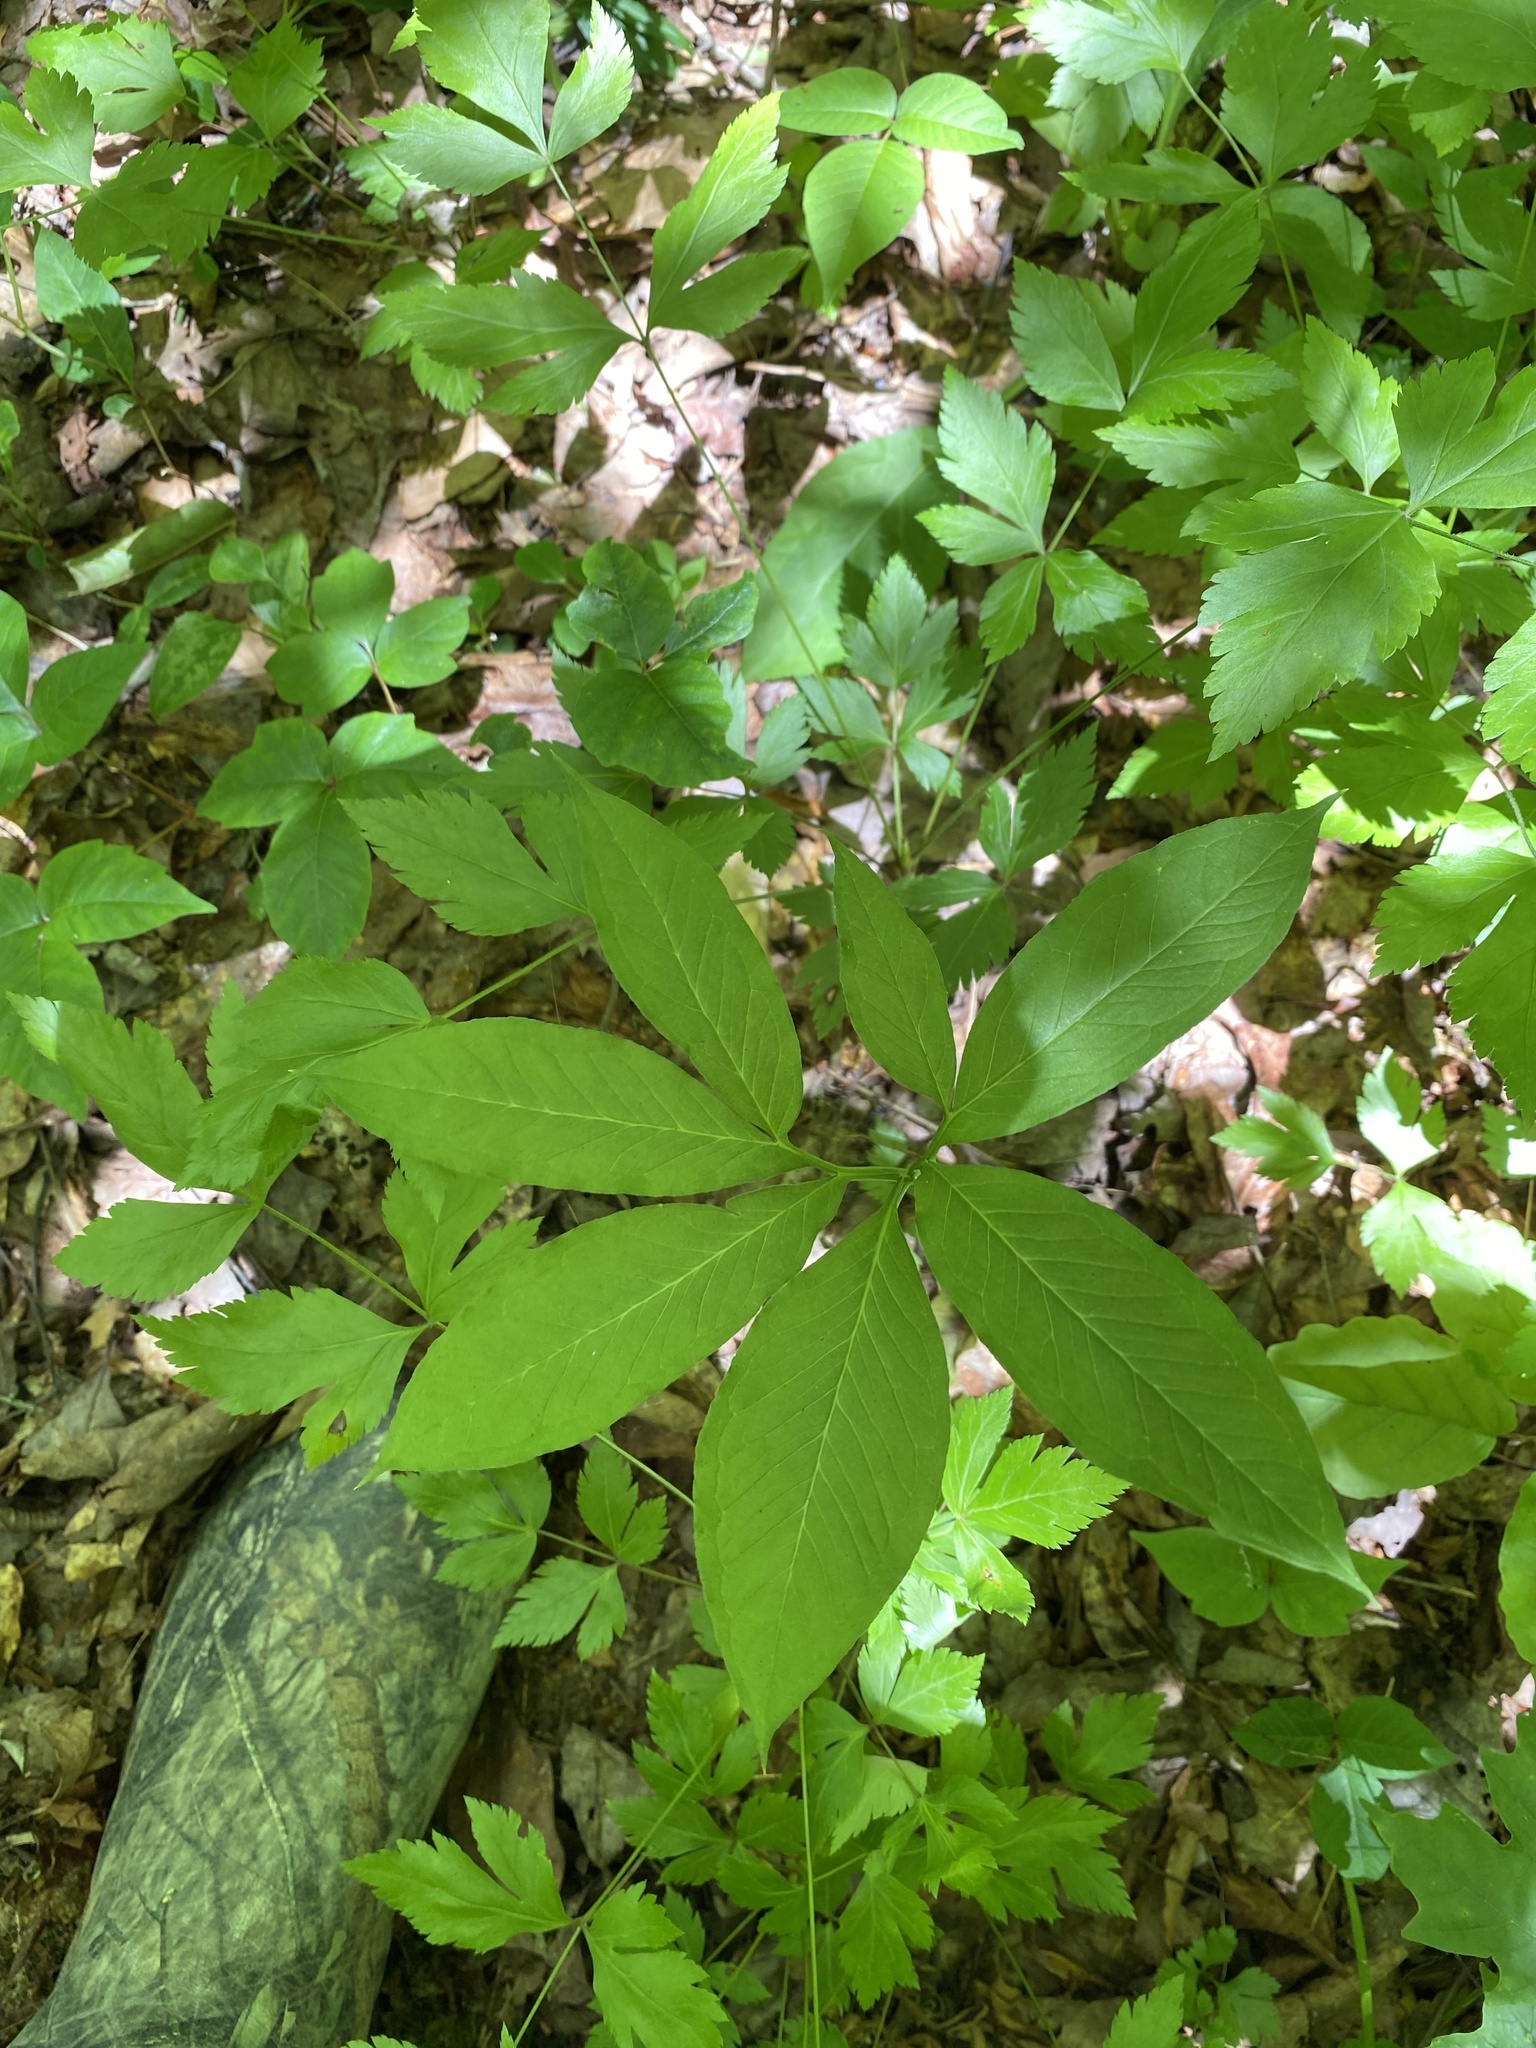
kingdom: Plantae
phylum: Tracheophyta
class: Liliopsida
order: Alismatales
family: Araceae
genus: Arisaema
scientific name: Arisaema dracontium
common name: Dragon-arum
